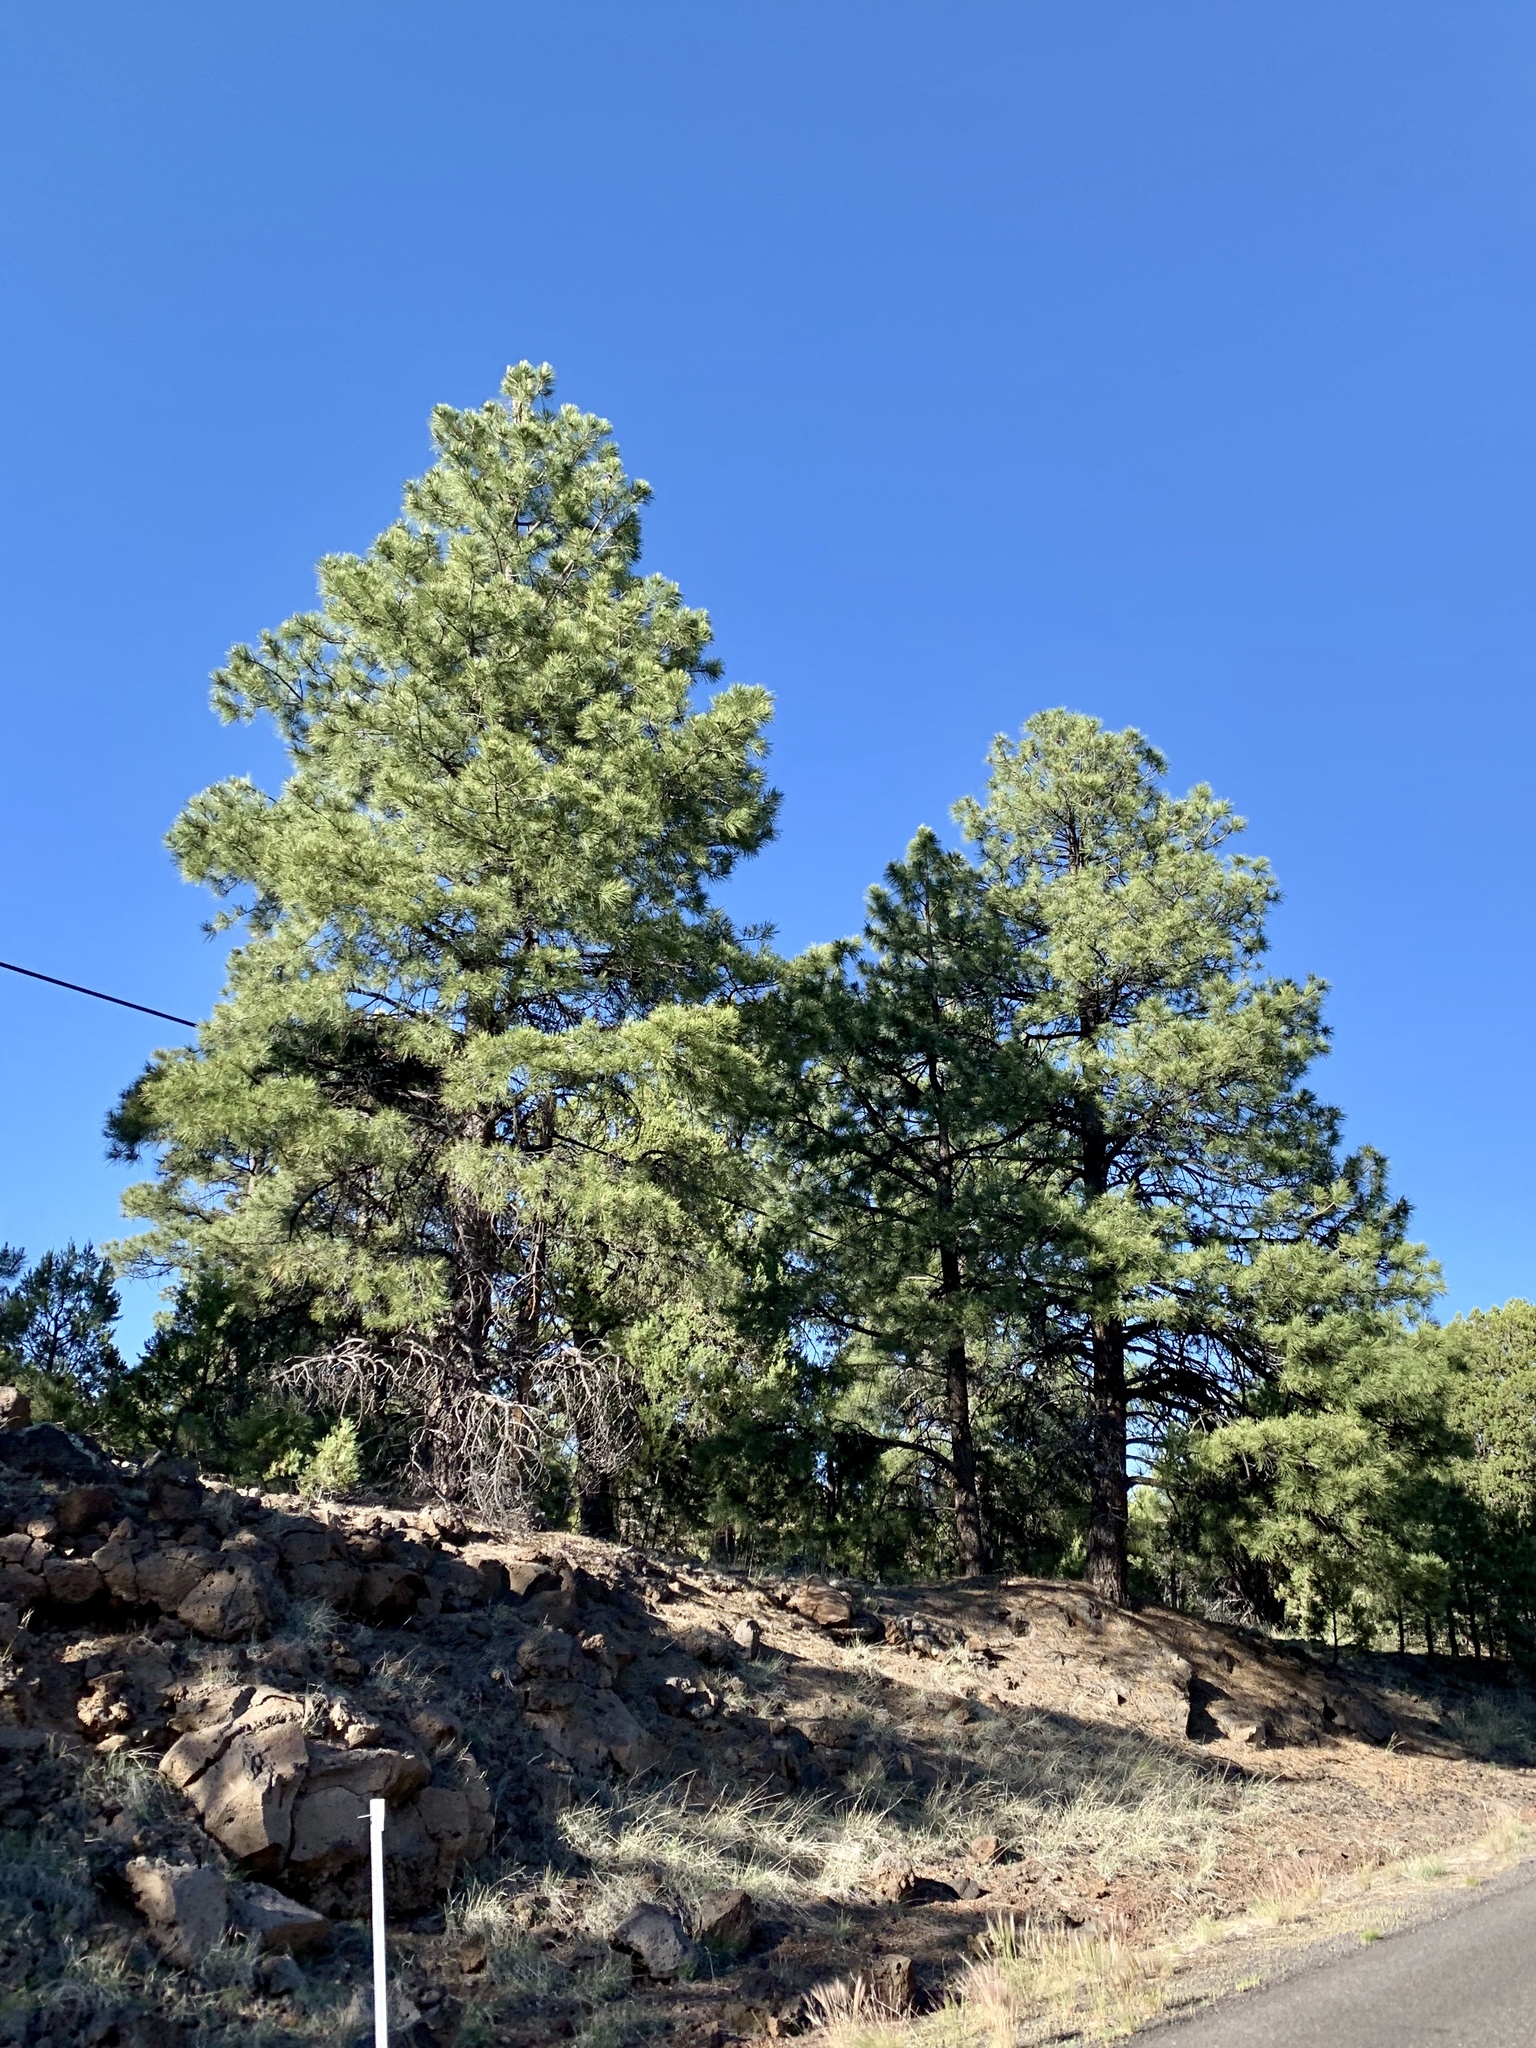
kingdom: Plantae
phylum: Tracheophyta
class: Pinopsida
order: Pinales
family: Pinaceae
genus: Pinus
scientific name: Pinus ponderosa
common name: Western yellow-pine
